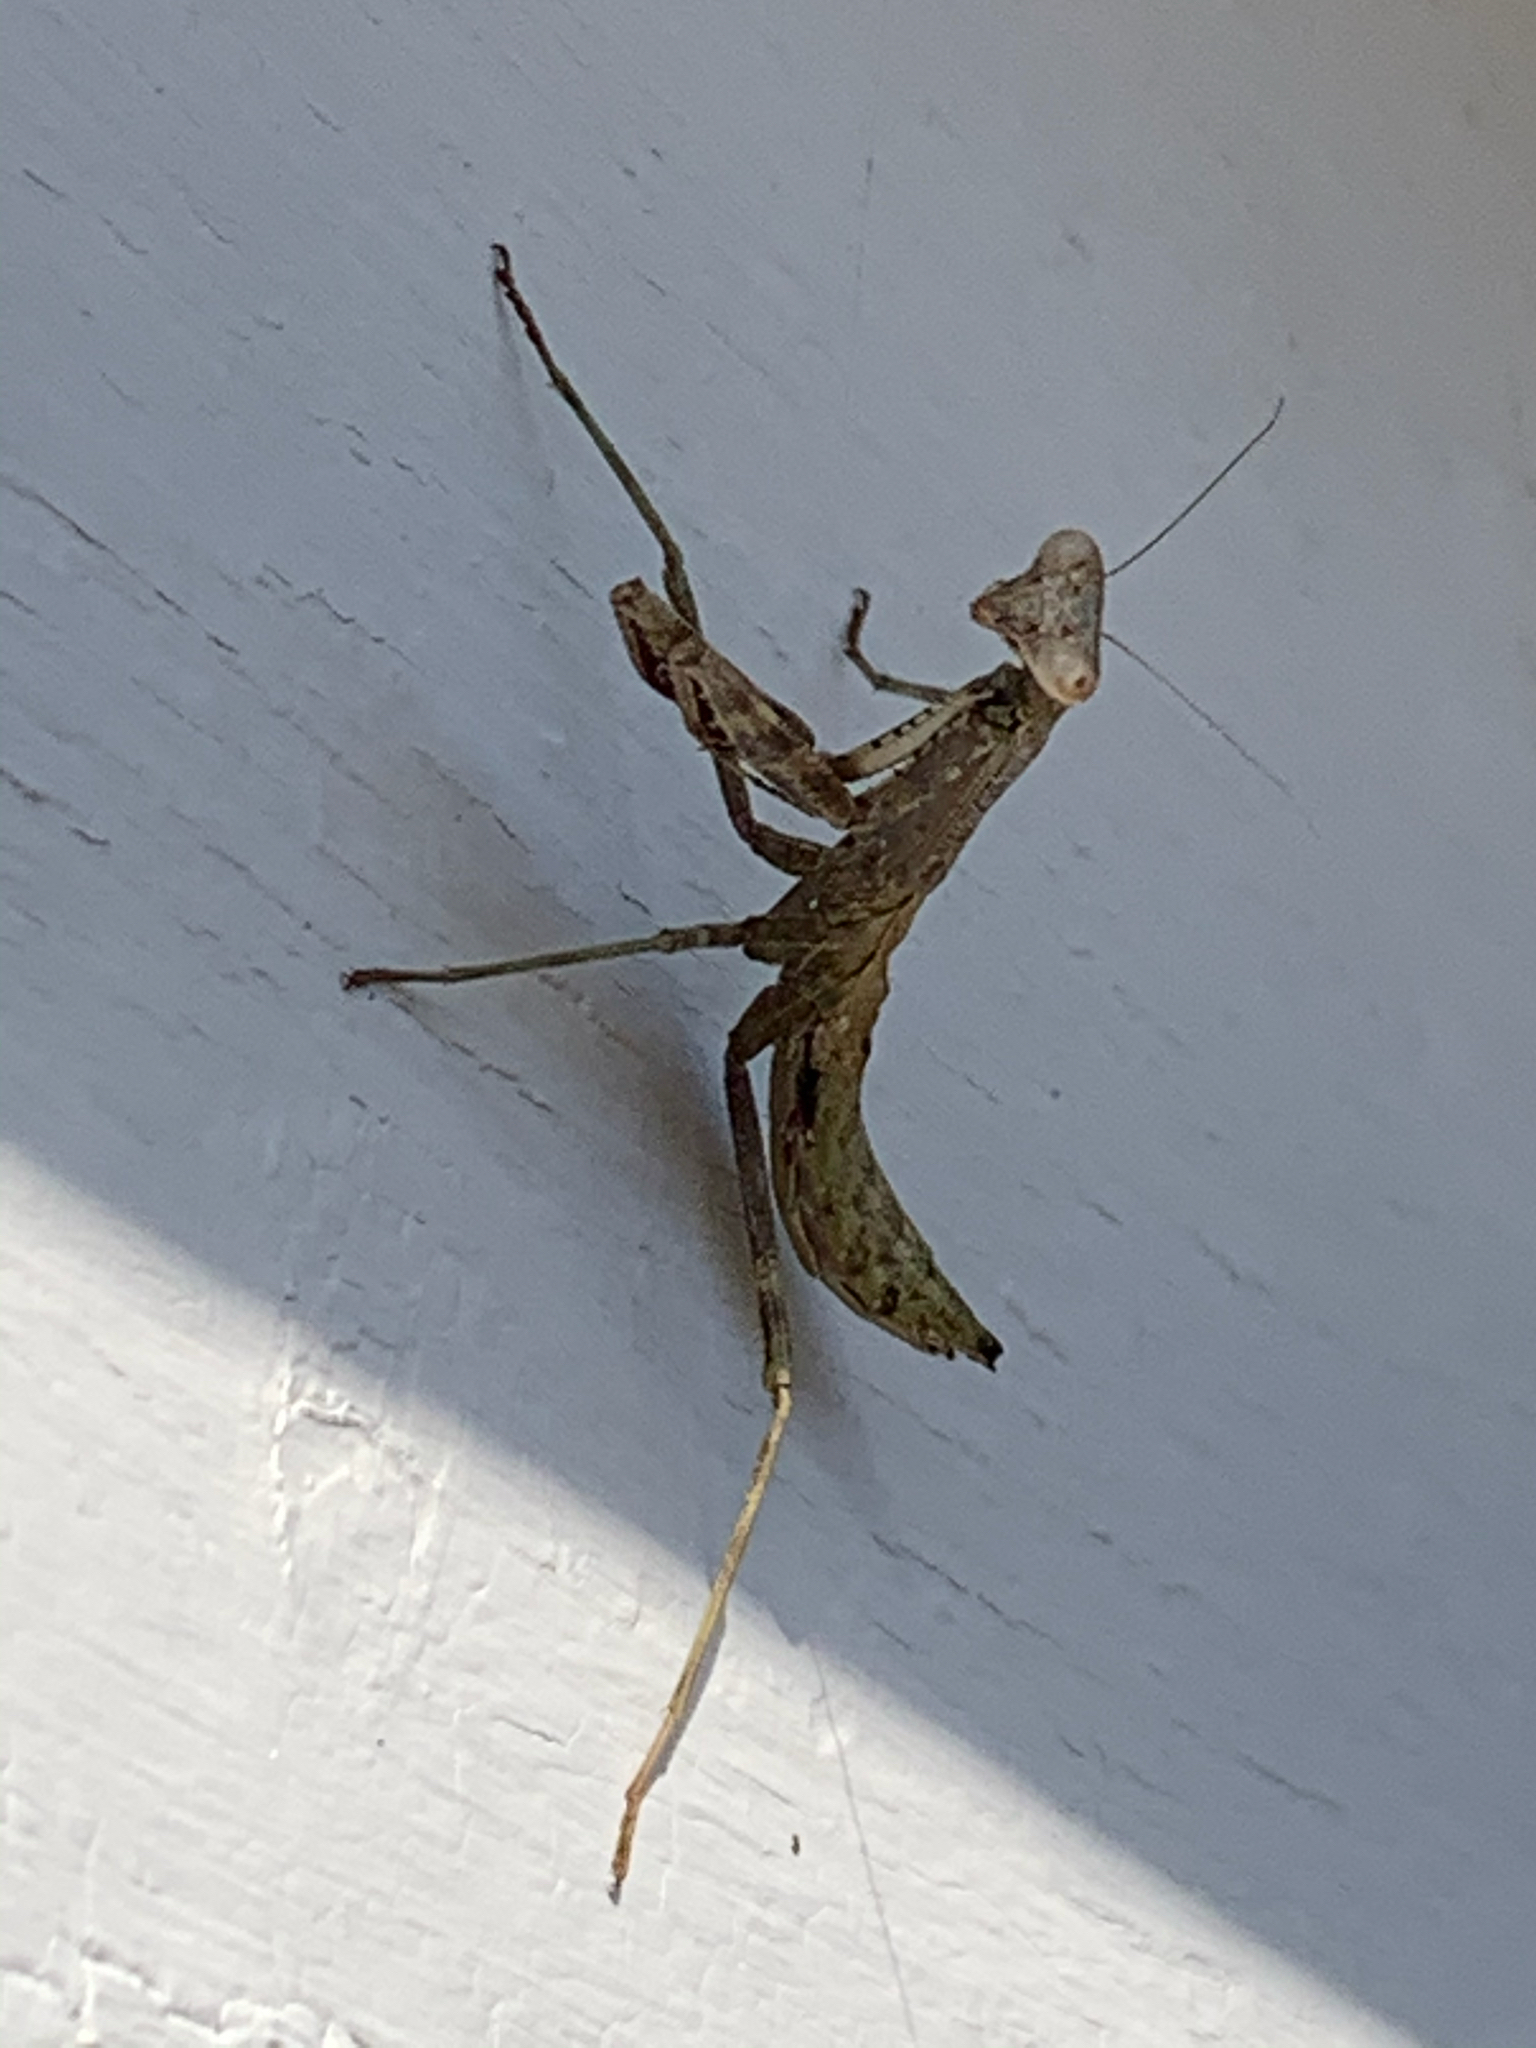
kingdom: Animalia
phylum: Arthropoda
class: Insecta
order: Mantodea
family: Mantidae
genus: Stagmomantis
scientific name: Stagmomantis carolina
